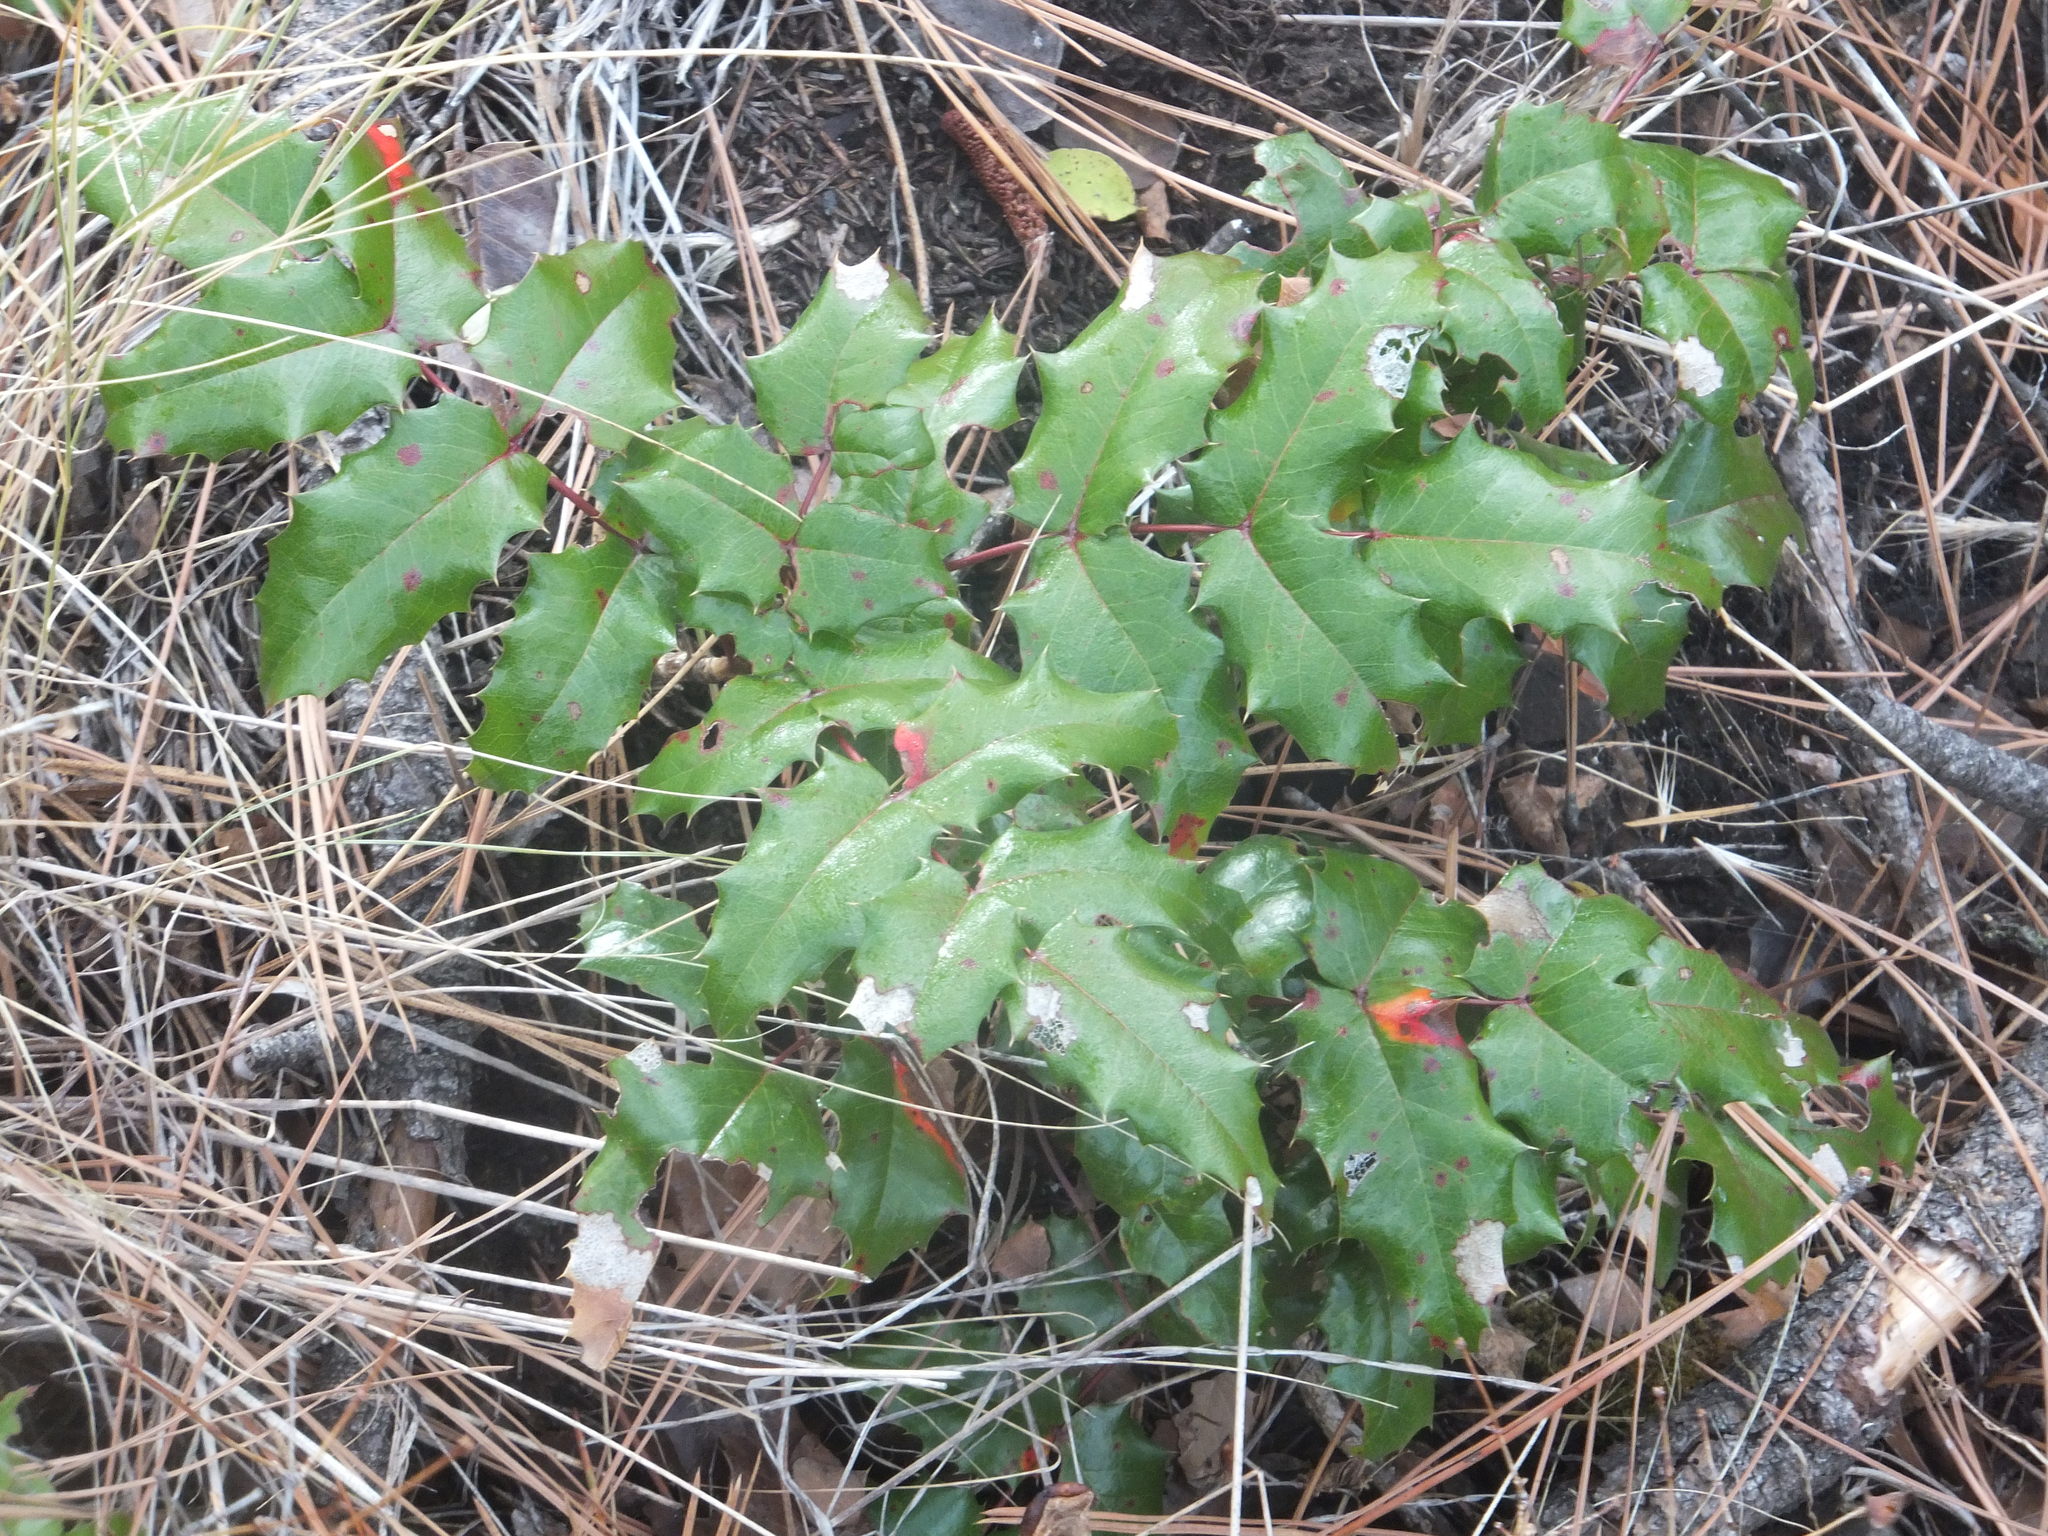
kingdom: Plantae
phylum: Tracheophyta
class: Magnoliopsida
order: Ranunculales
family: Berberidaceae
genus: Mahonia
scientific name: Mahonia aquifolium
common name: Oregon-grape
